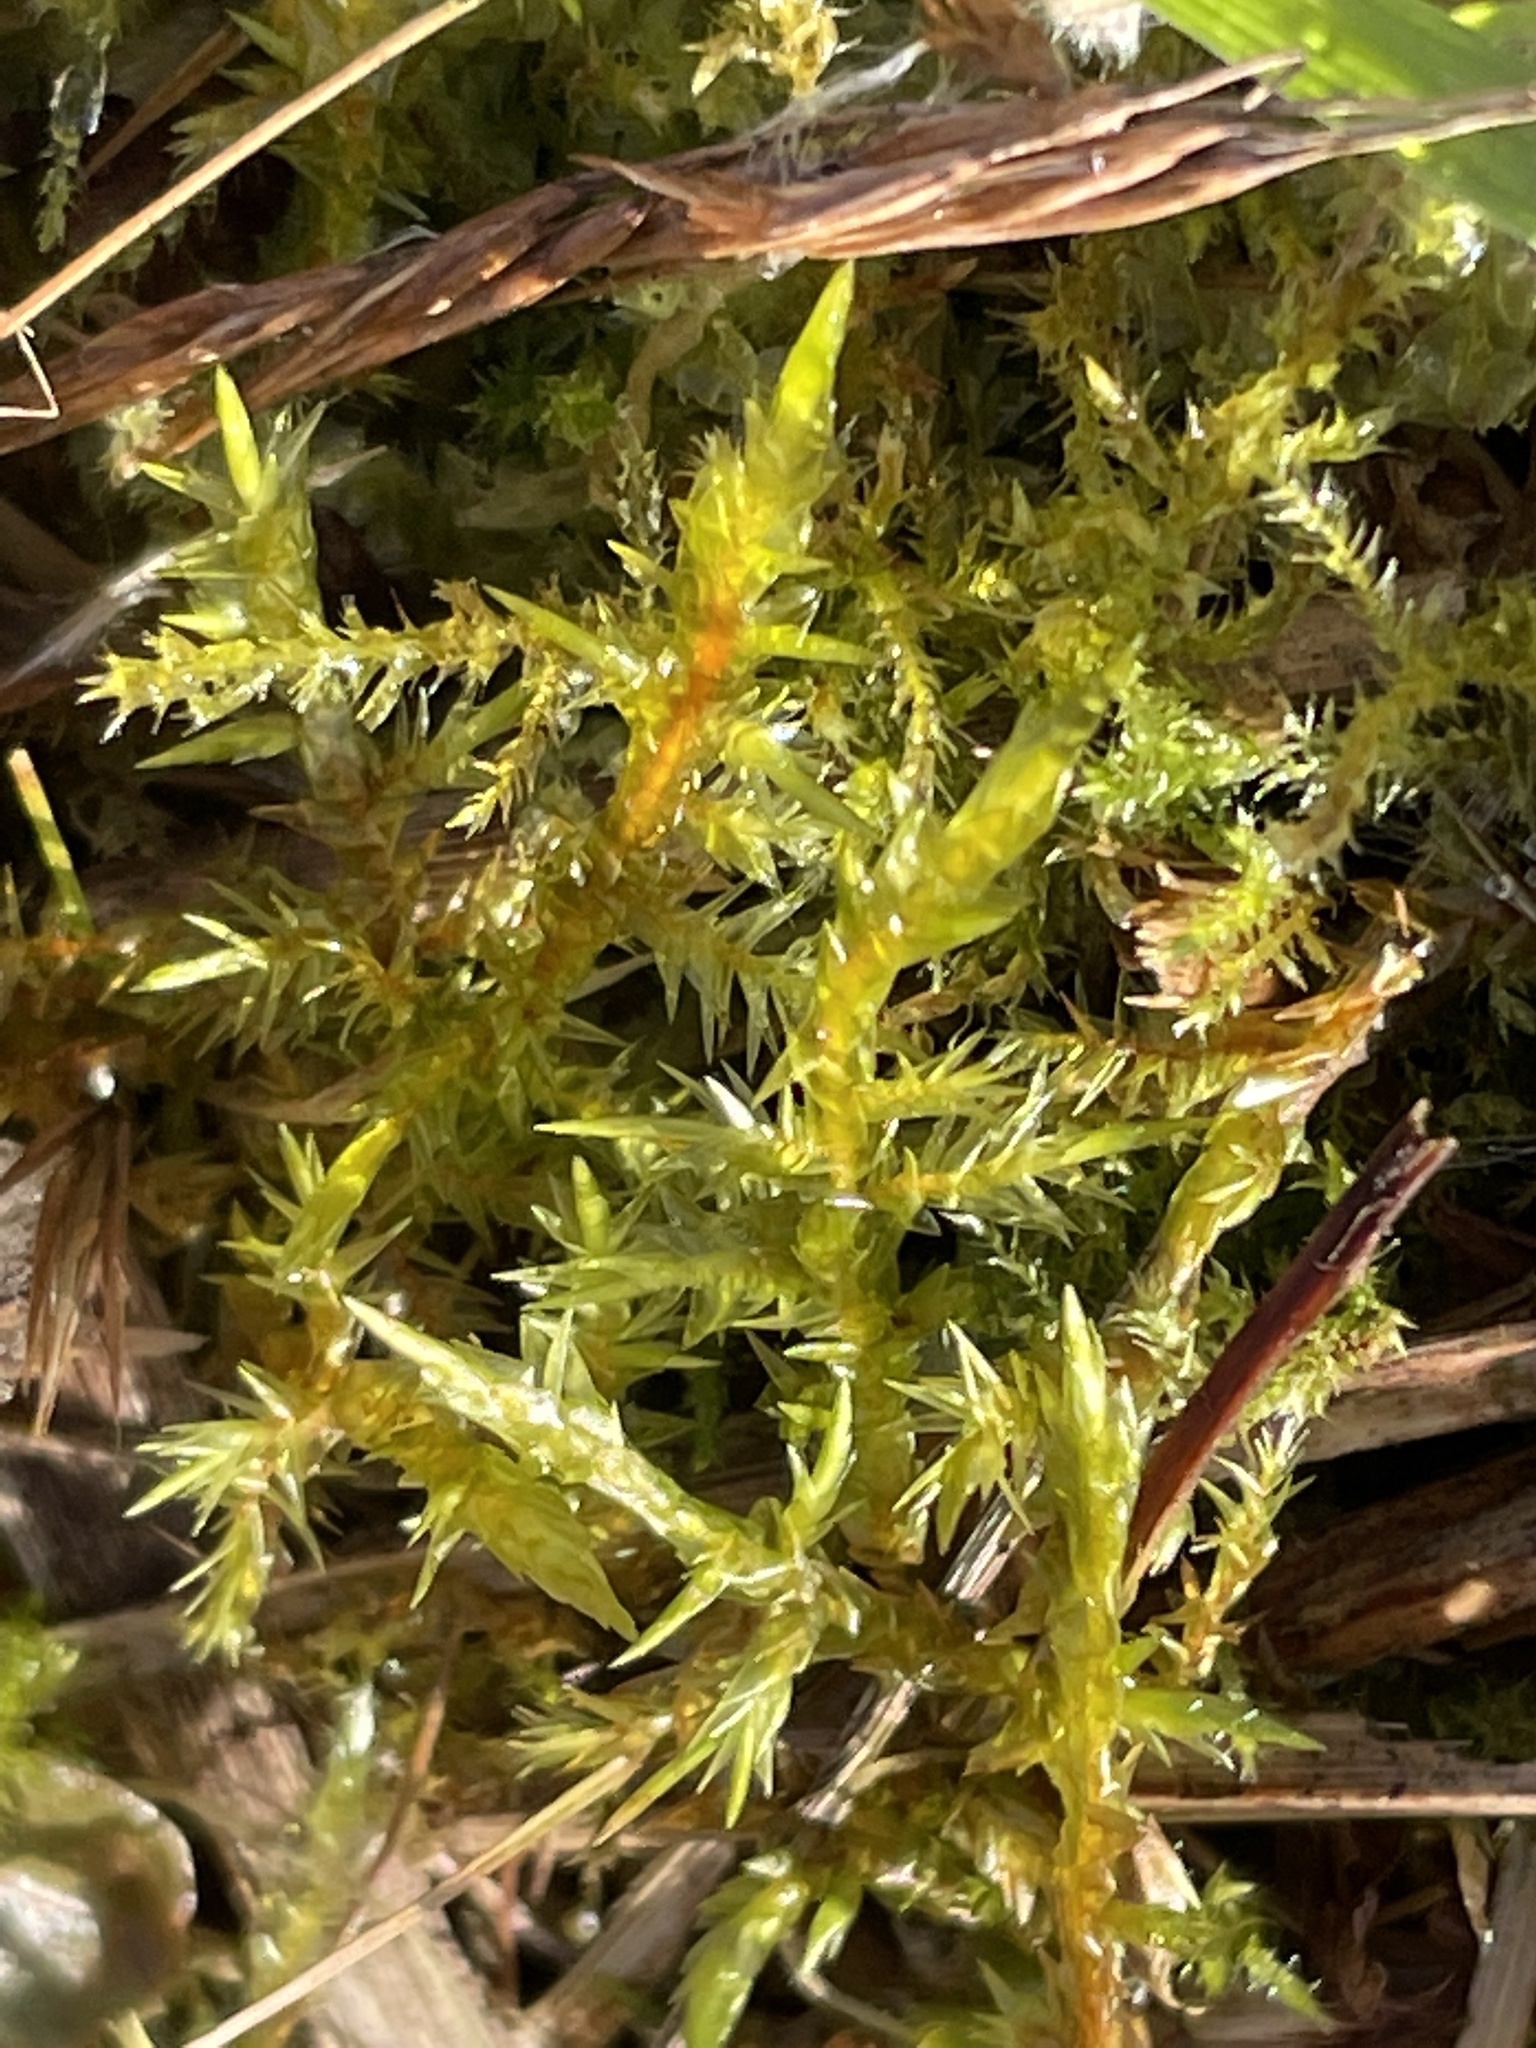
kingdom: Plantae
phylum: Bryophyta
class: Bryopsida
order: Hypnales
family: Pylaisiaceae
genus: Calliergonella
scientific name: Calliergonella cuspidata
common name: Common large wetland moss
